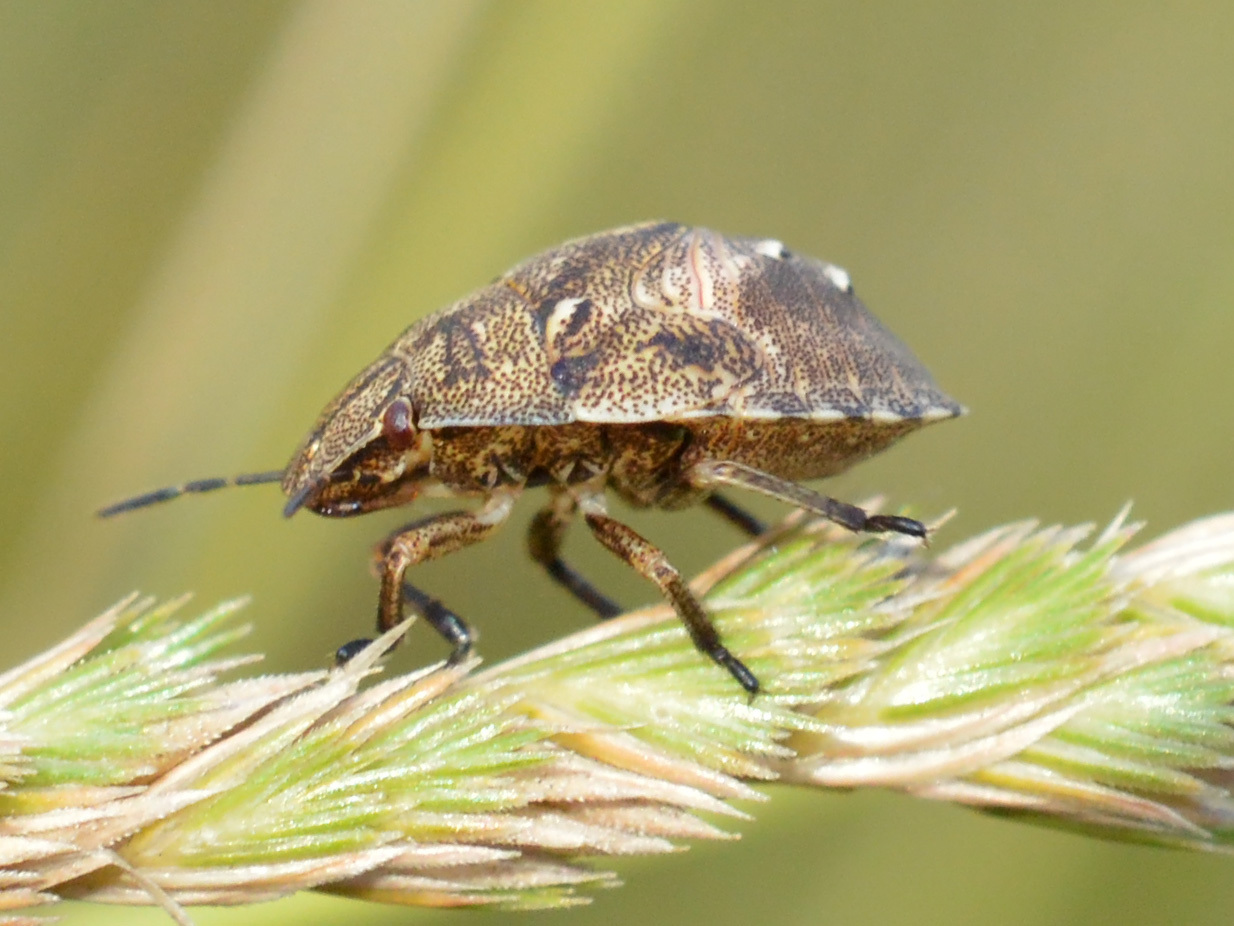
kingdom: Animalia
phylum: Arthropoda
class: Insecta
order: Hemiptera
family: Scutelleridae
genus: Eurygaster
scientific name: Eurygaster testudinaria
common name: Tortoise bug
